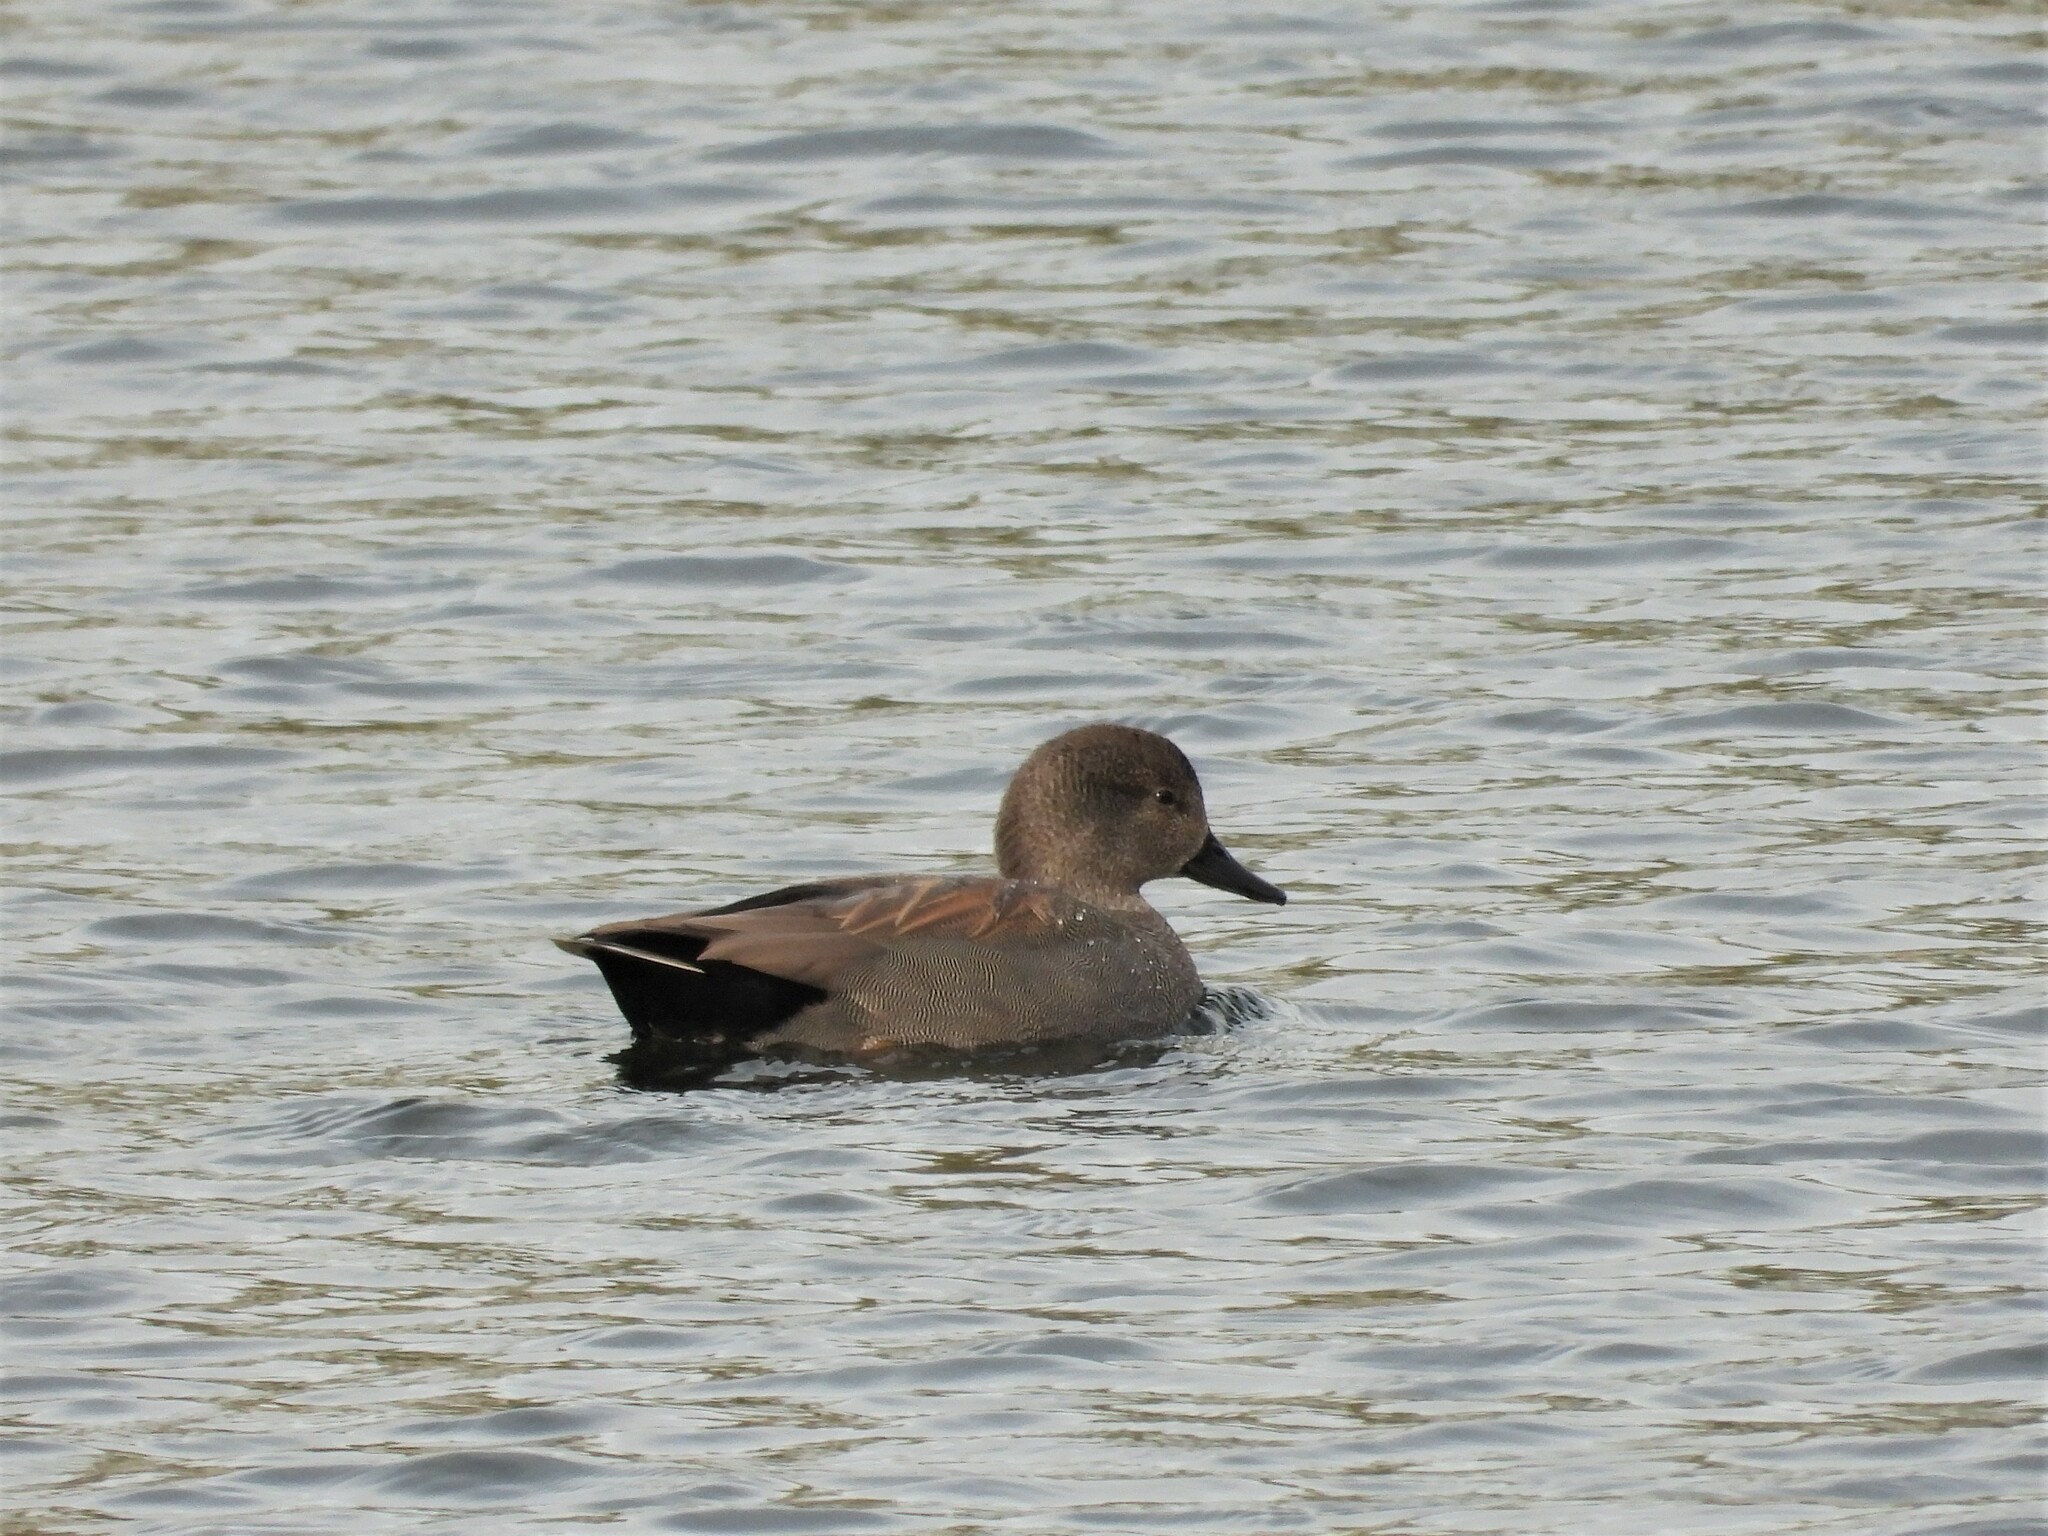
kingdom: Animalia
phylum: Chordata
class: Aves
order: Anseriformes
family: Anatidae
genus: Mareca
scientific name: Mareca strepera
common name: Gadwall
